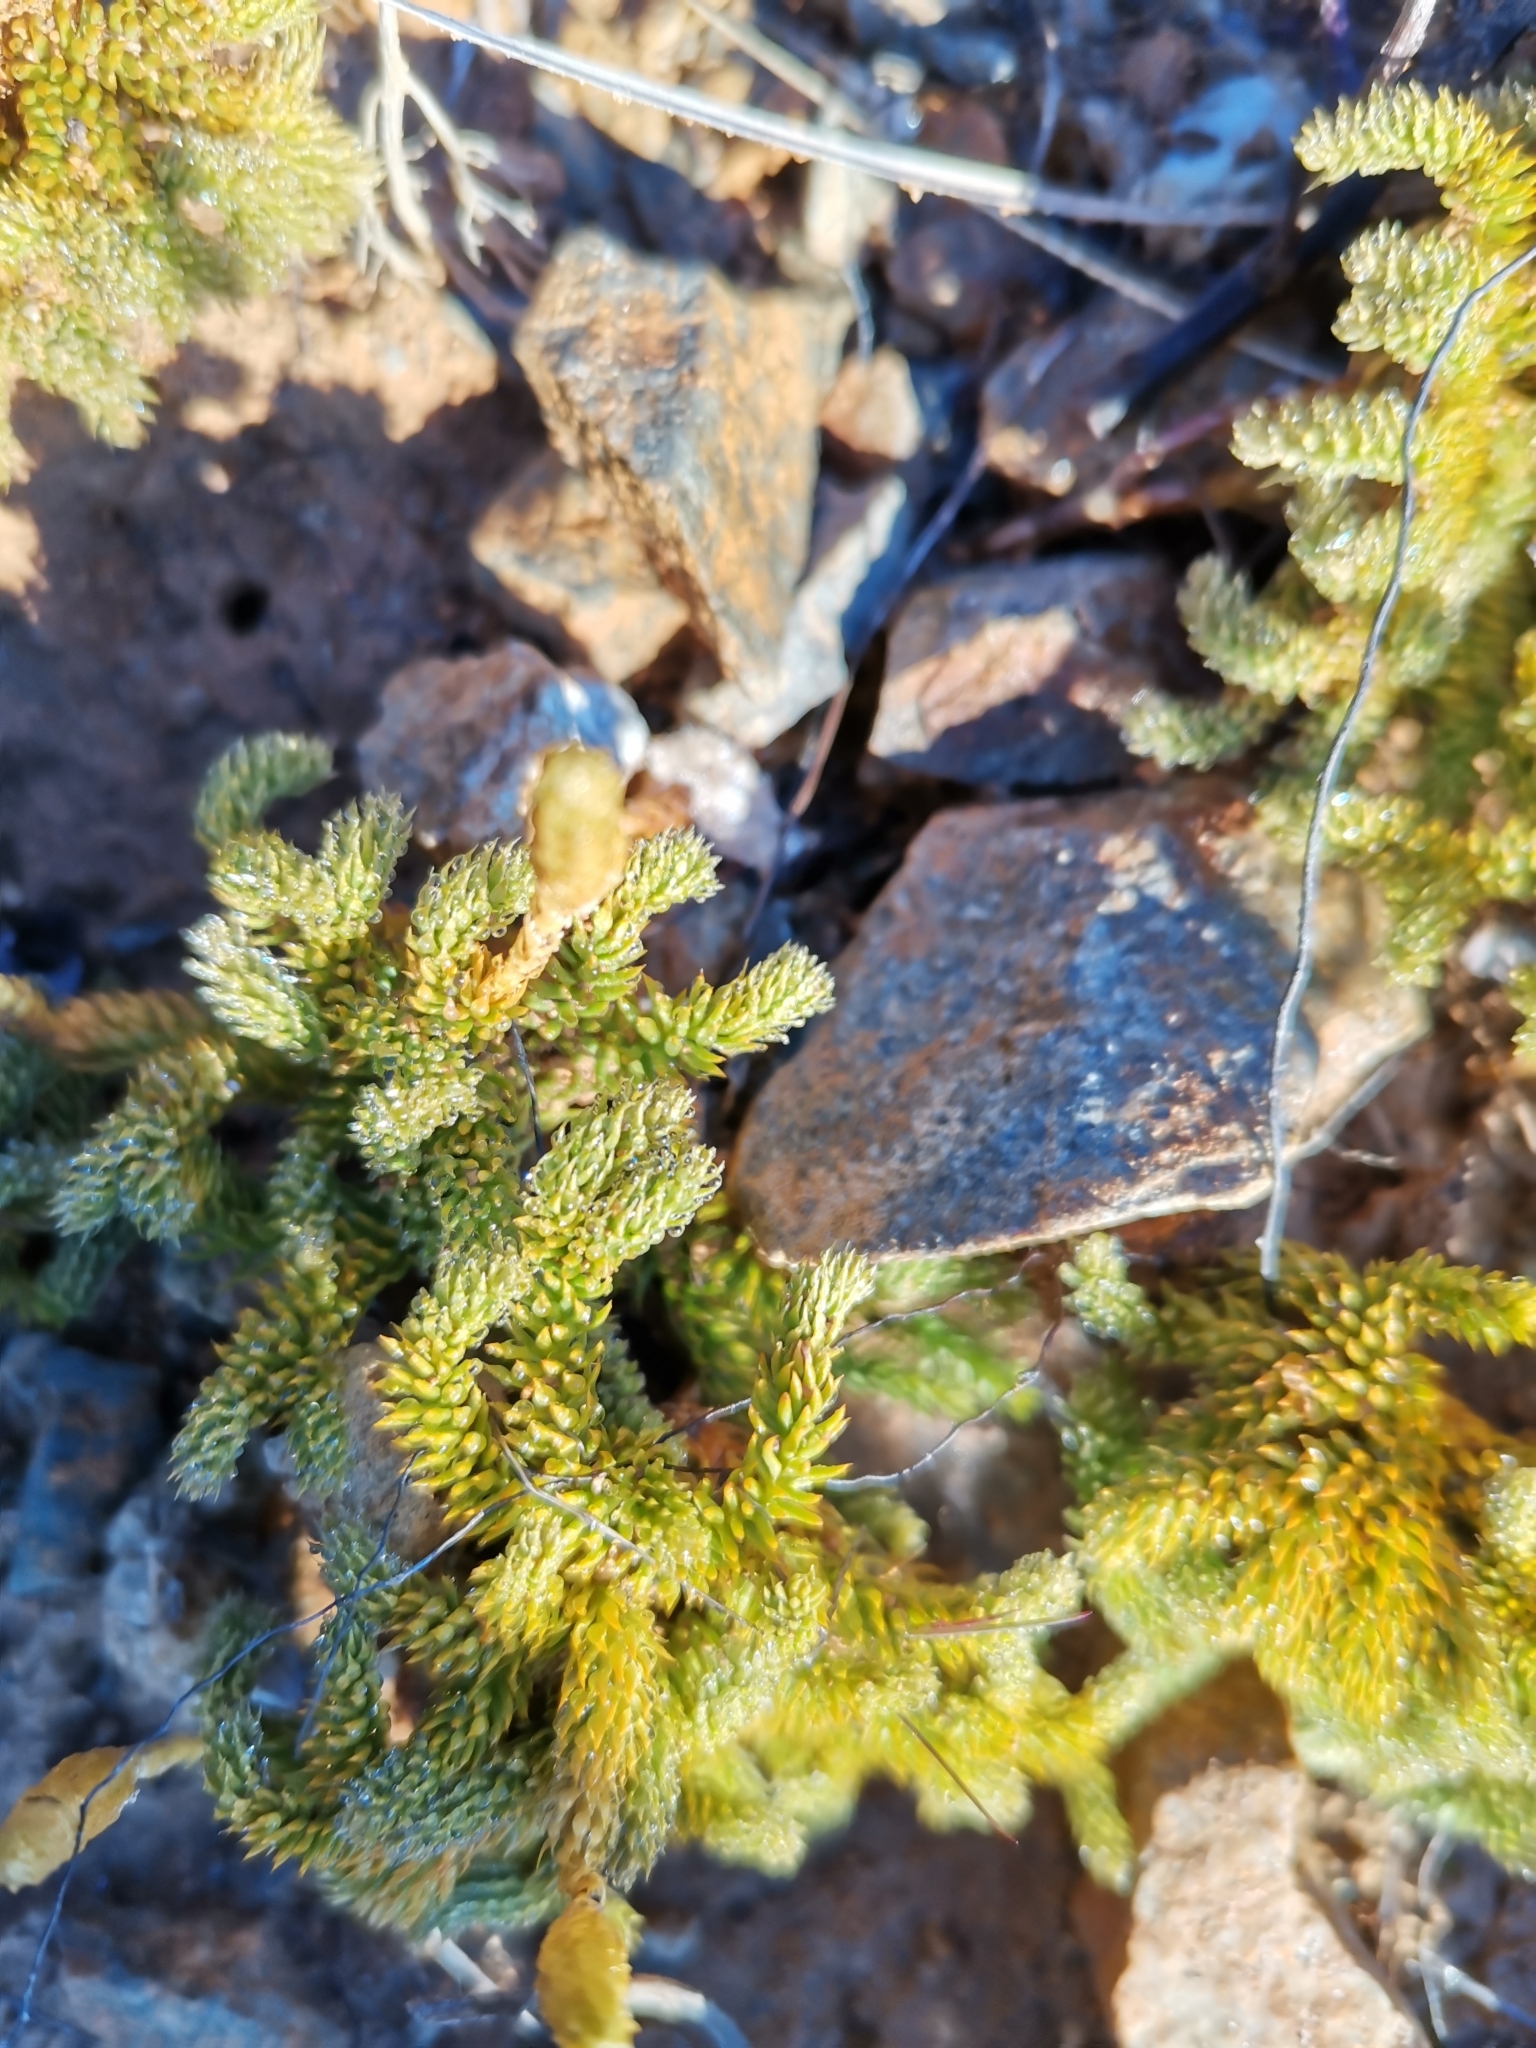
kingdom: Plantae
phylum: Tracheophyta
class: Lycopodiopsida
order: Lycopodiales
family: Lycopodiaceae
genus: Austrolycopodium
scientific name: Austrolycopodium fastigiatum
